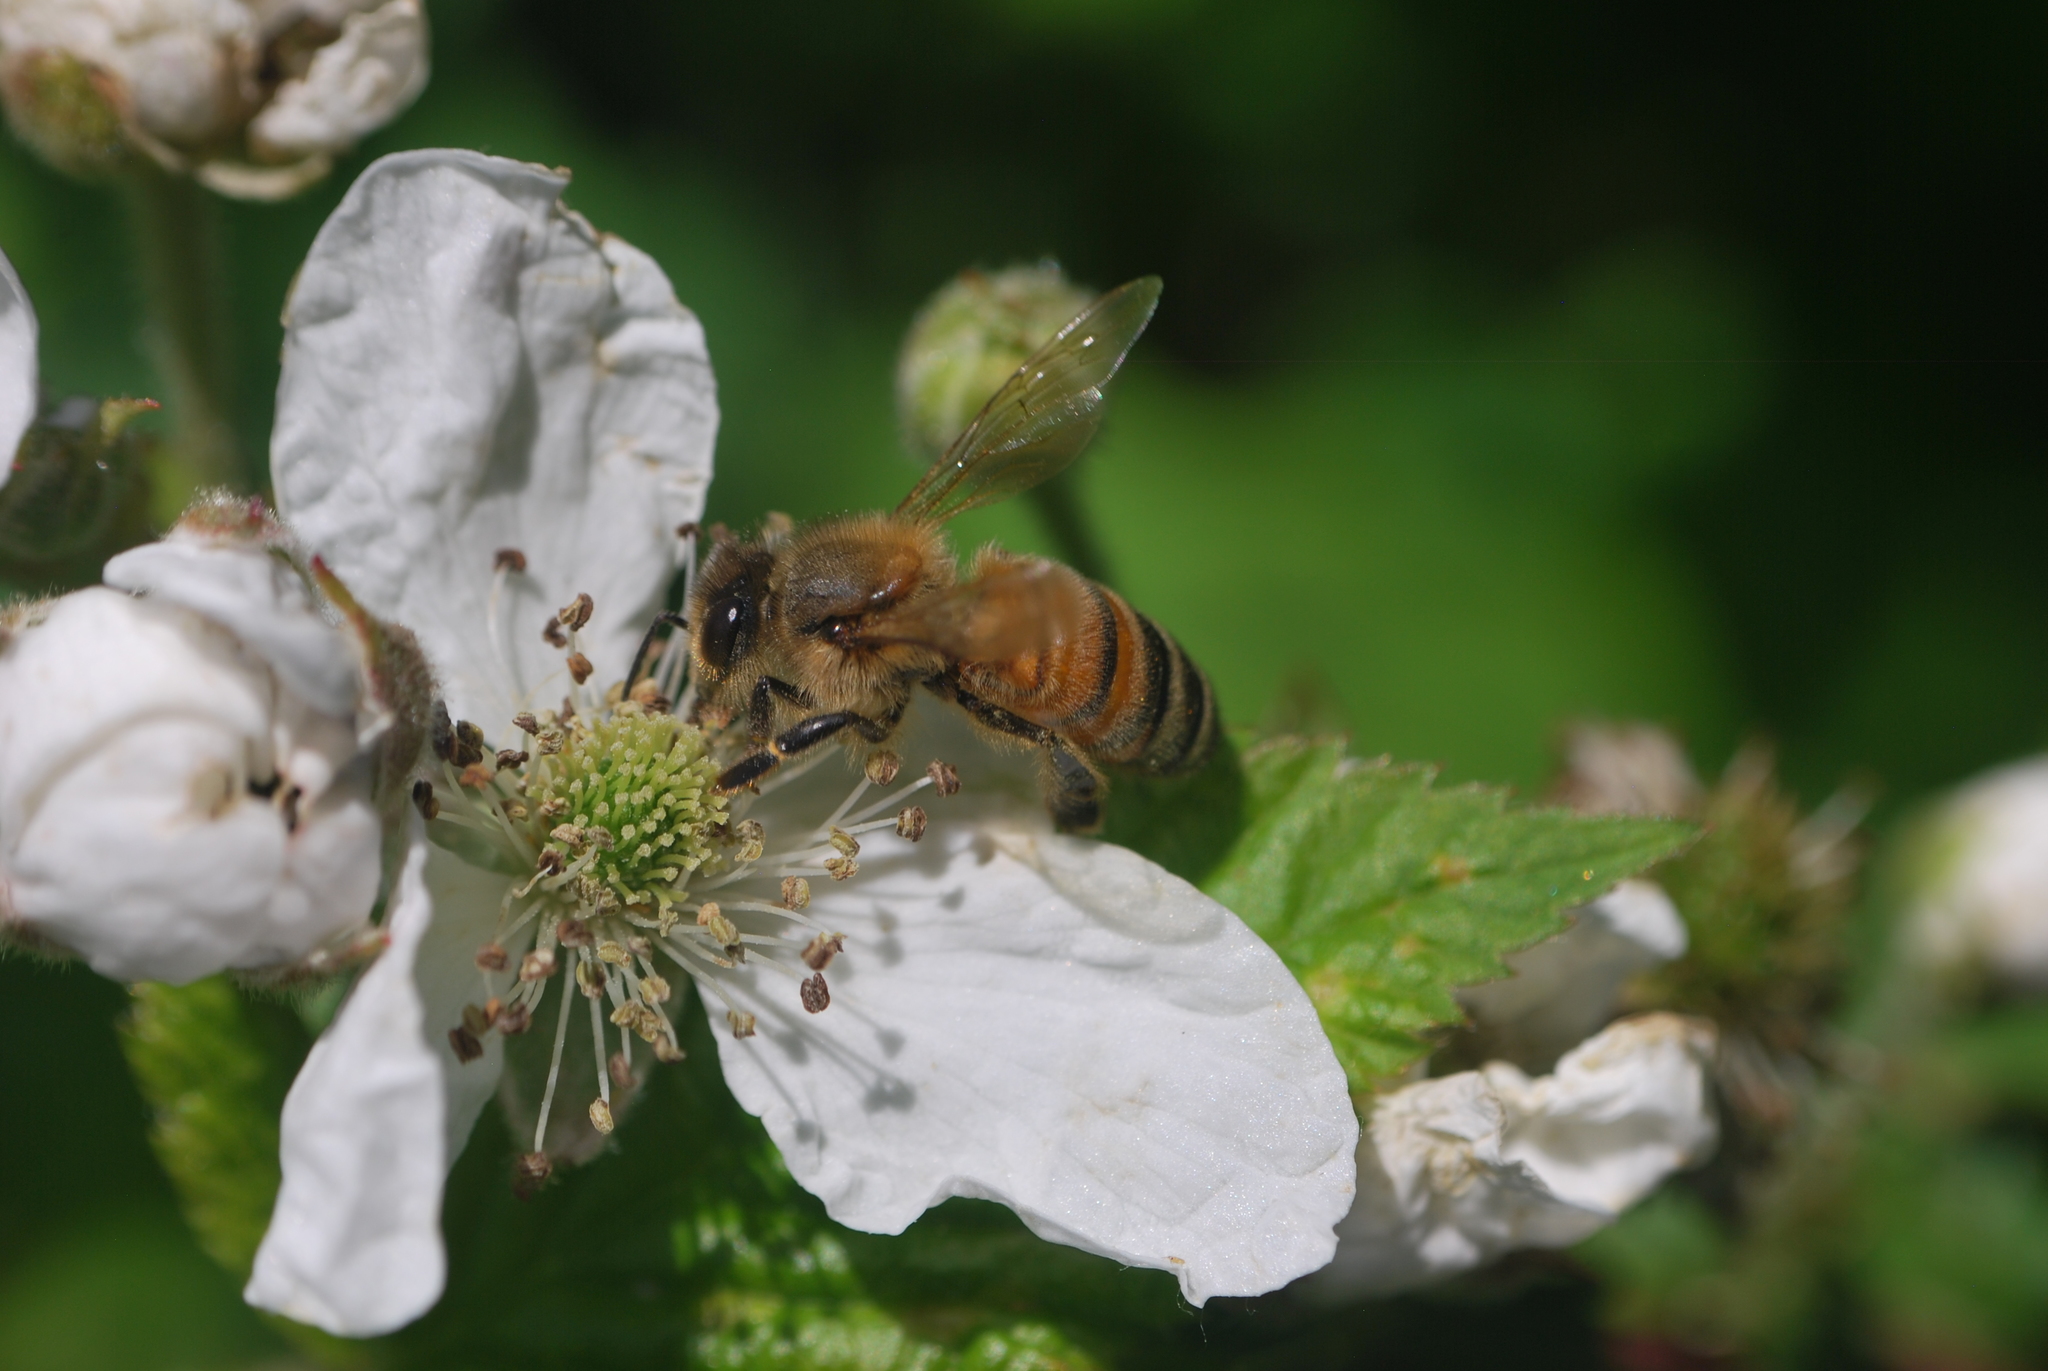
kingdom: Animalia
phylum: Arthropoda
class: Insecta
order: Hymenoptera
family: Apidae
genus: Apis
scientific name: Apis mellifera
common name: Honey bee
